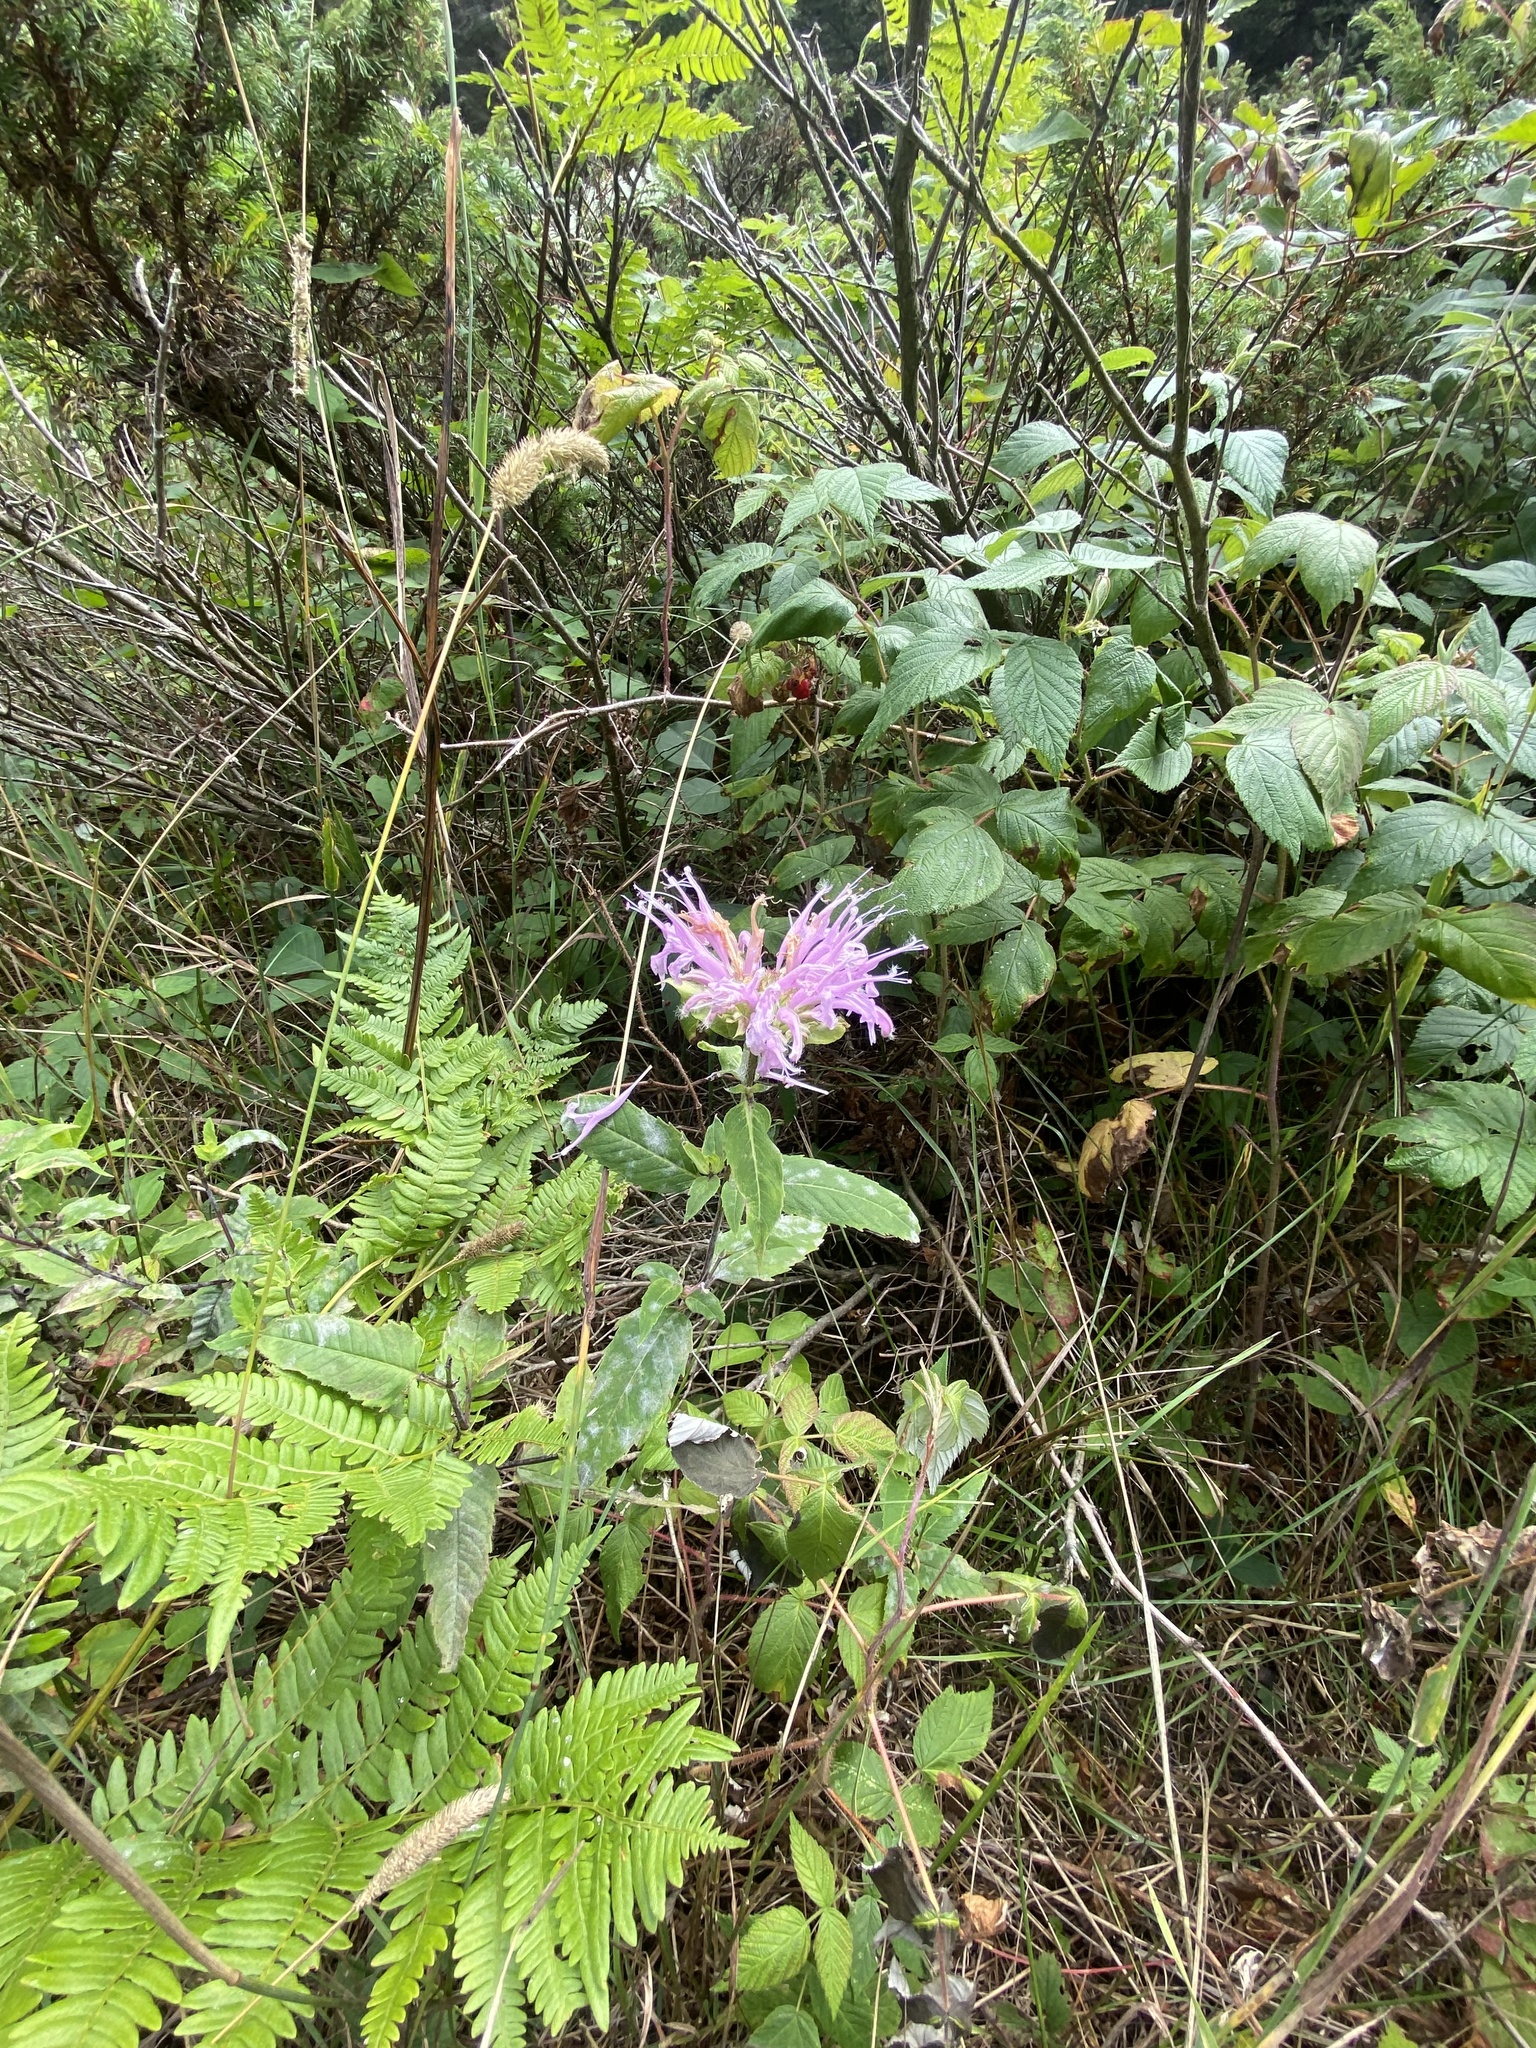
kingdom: Plantae
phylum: Tracheophyta
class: Magnoliopsida
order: Lamiales
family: Lamiaceae
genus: Monarda
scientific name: Monarda fistulosa
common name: Purple beebalm
